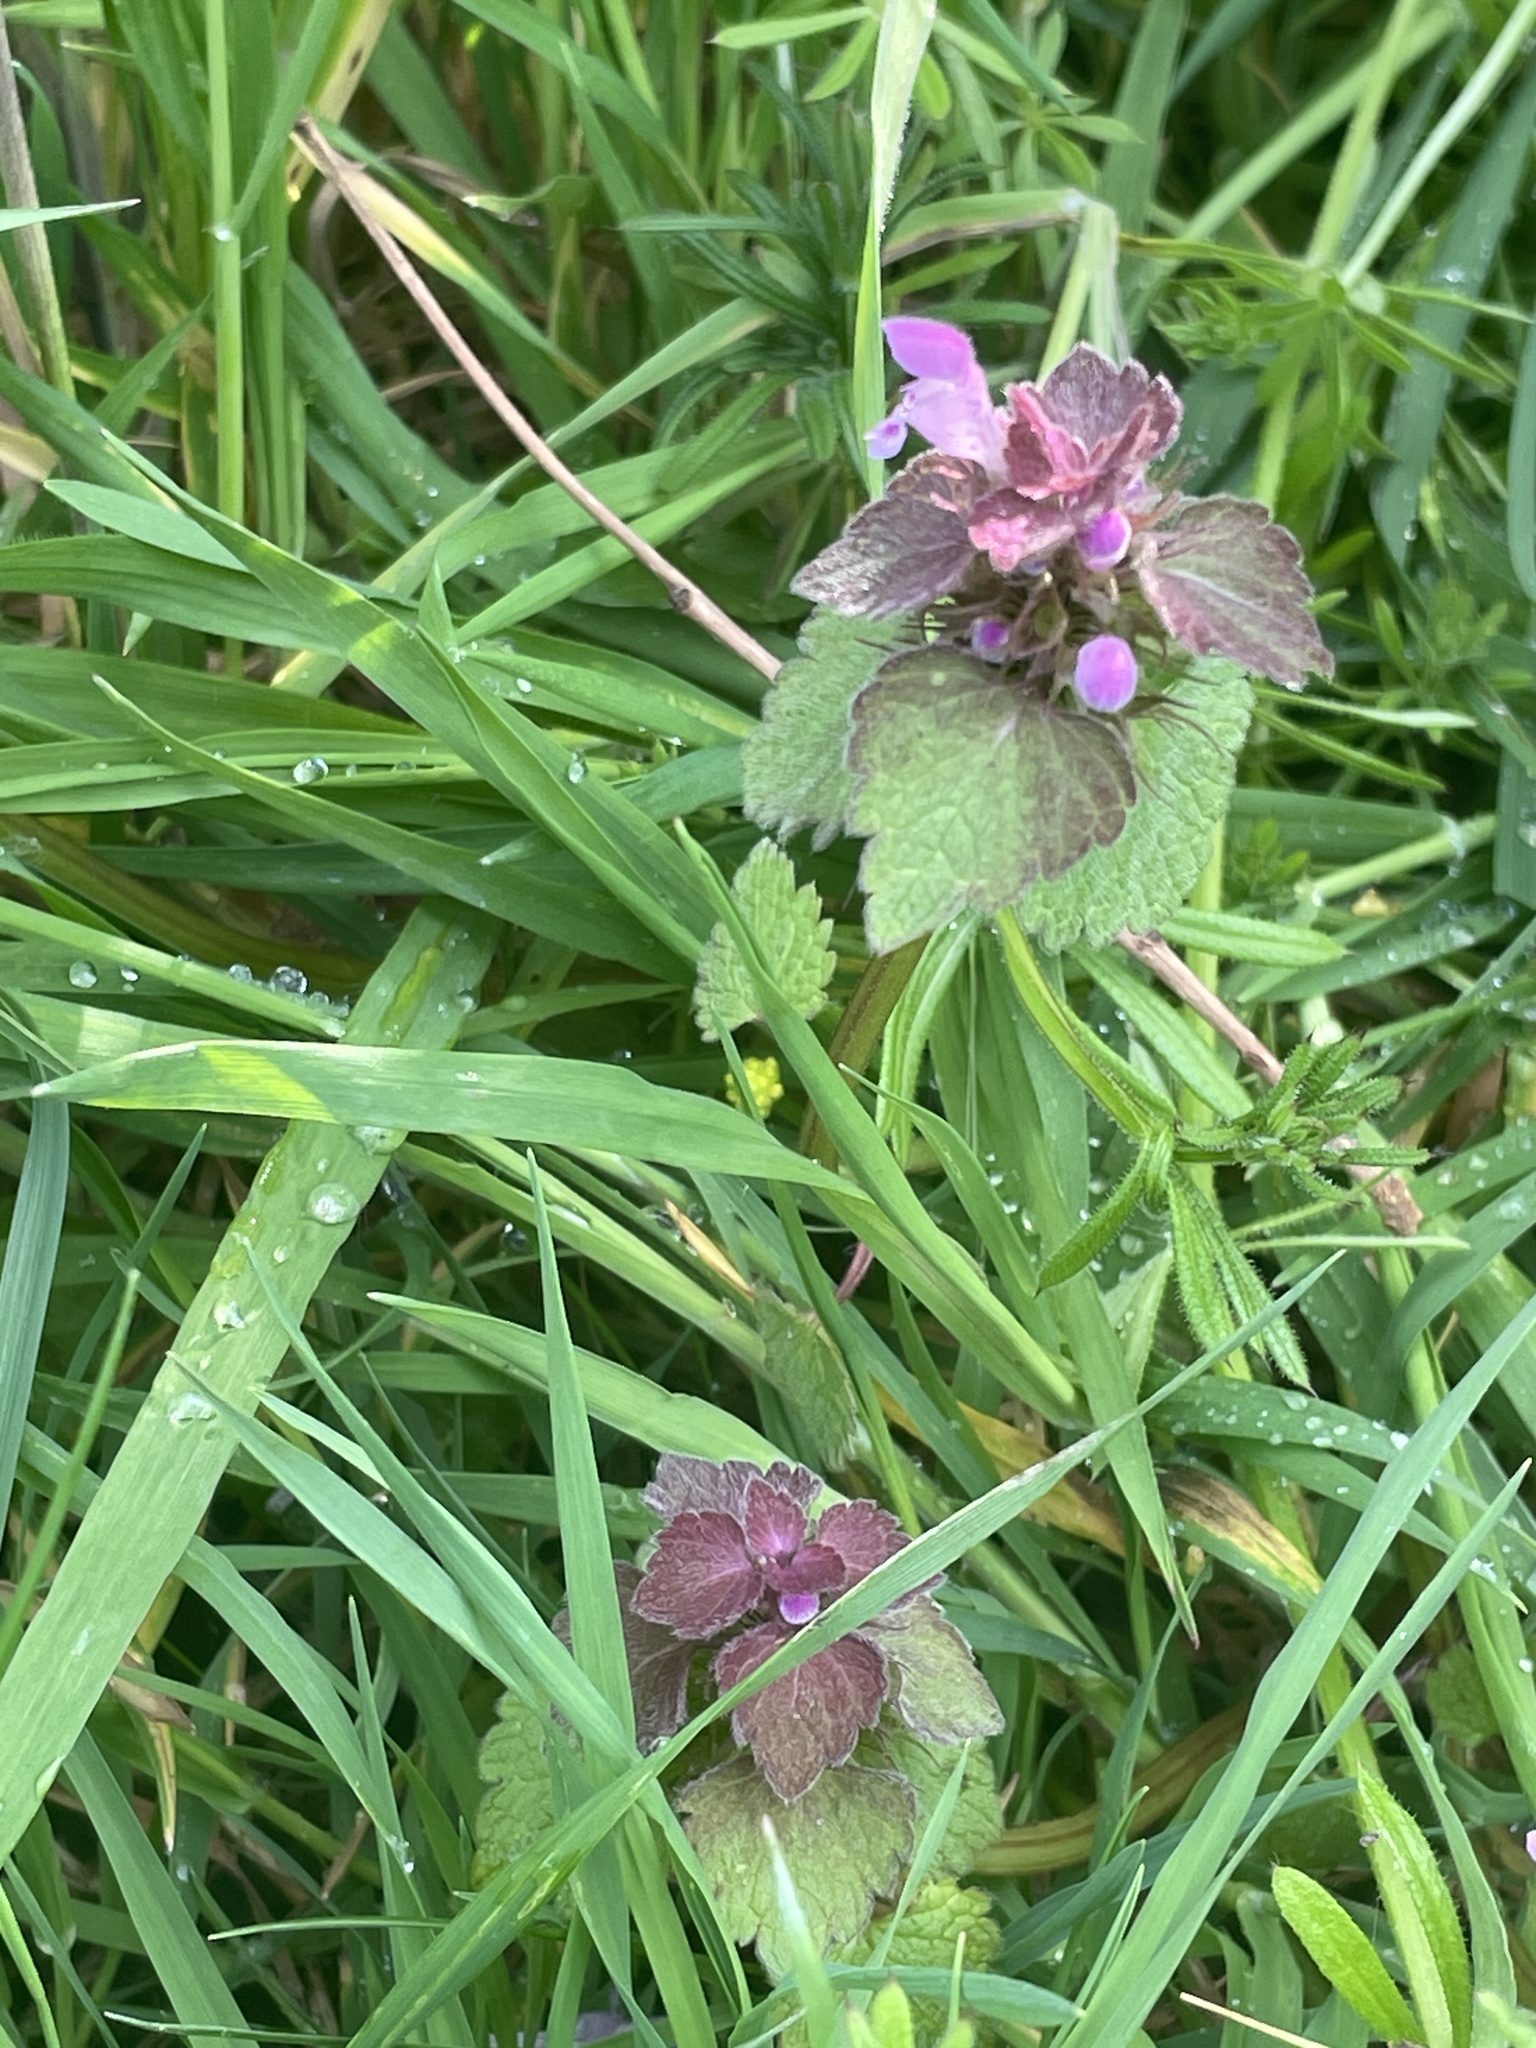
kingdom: Plantae
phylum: Tracheophyta
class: Magnoliopsida
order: Lamiales
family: Lamiaceae
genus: Lamium
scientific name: Lamium purpureum
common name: Red dead-nettle
